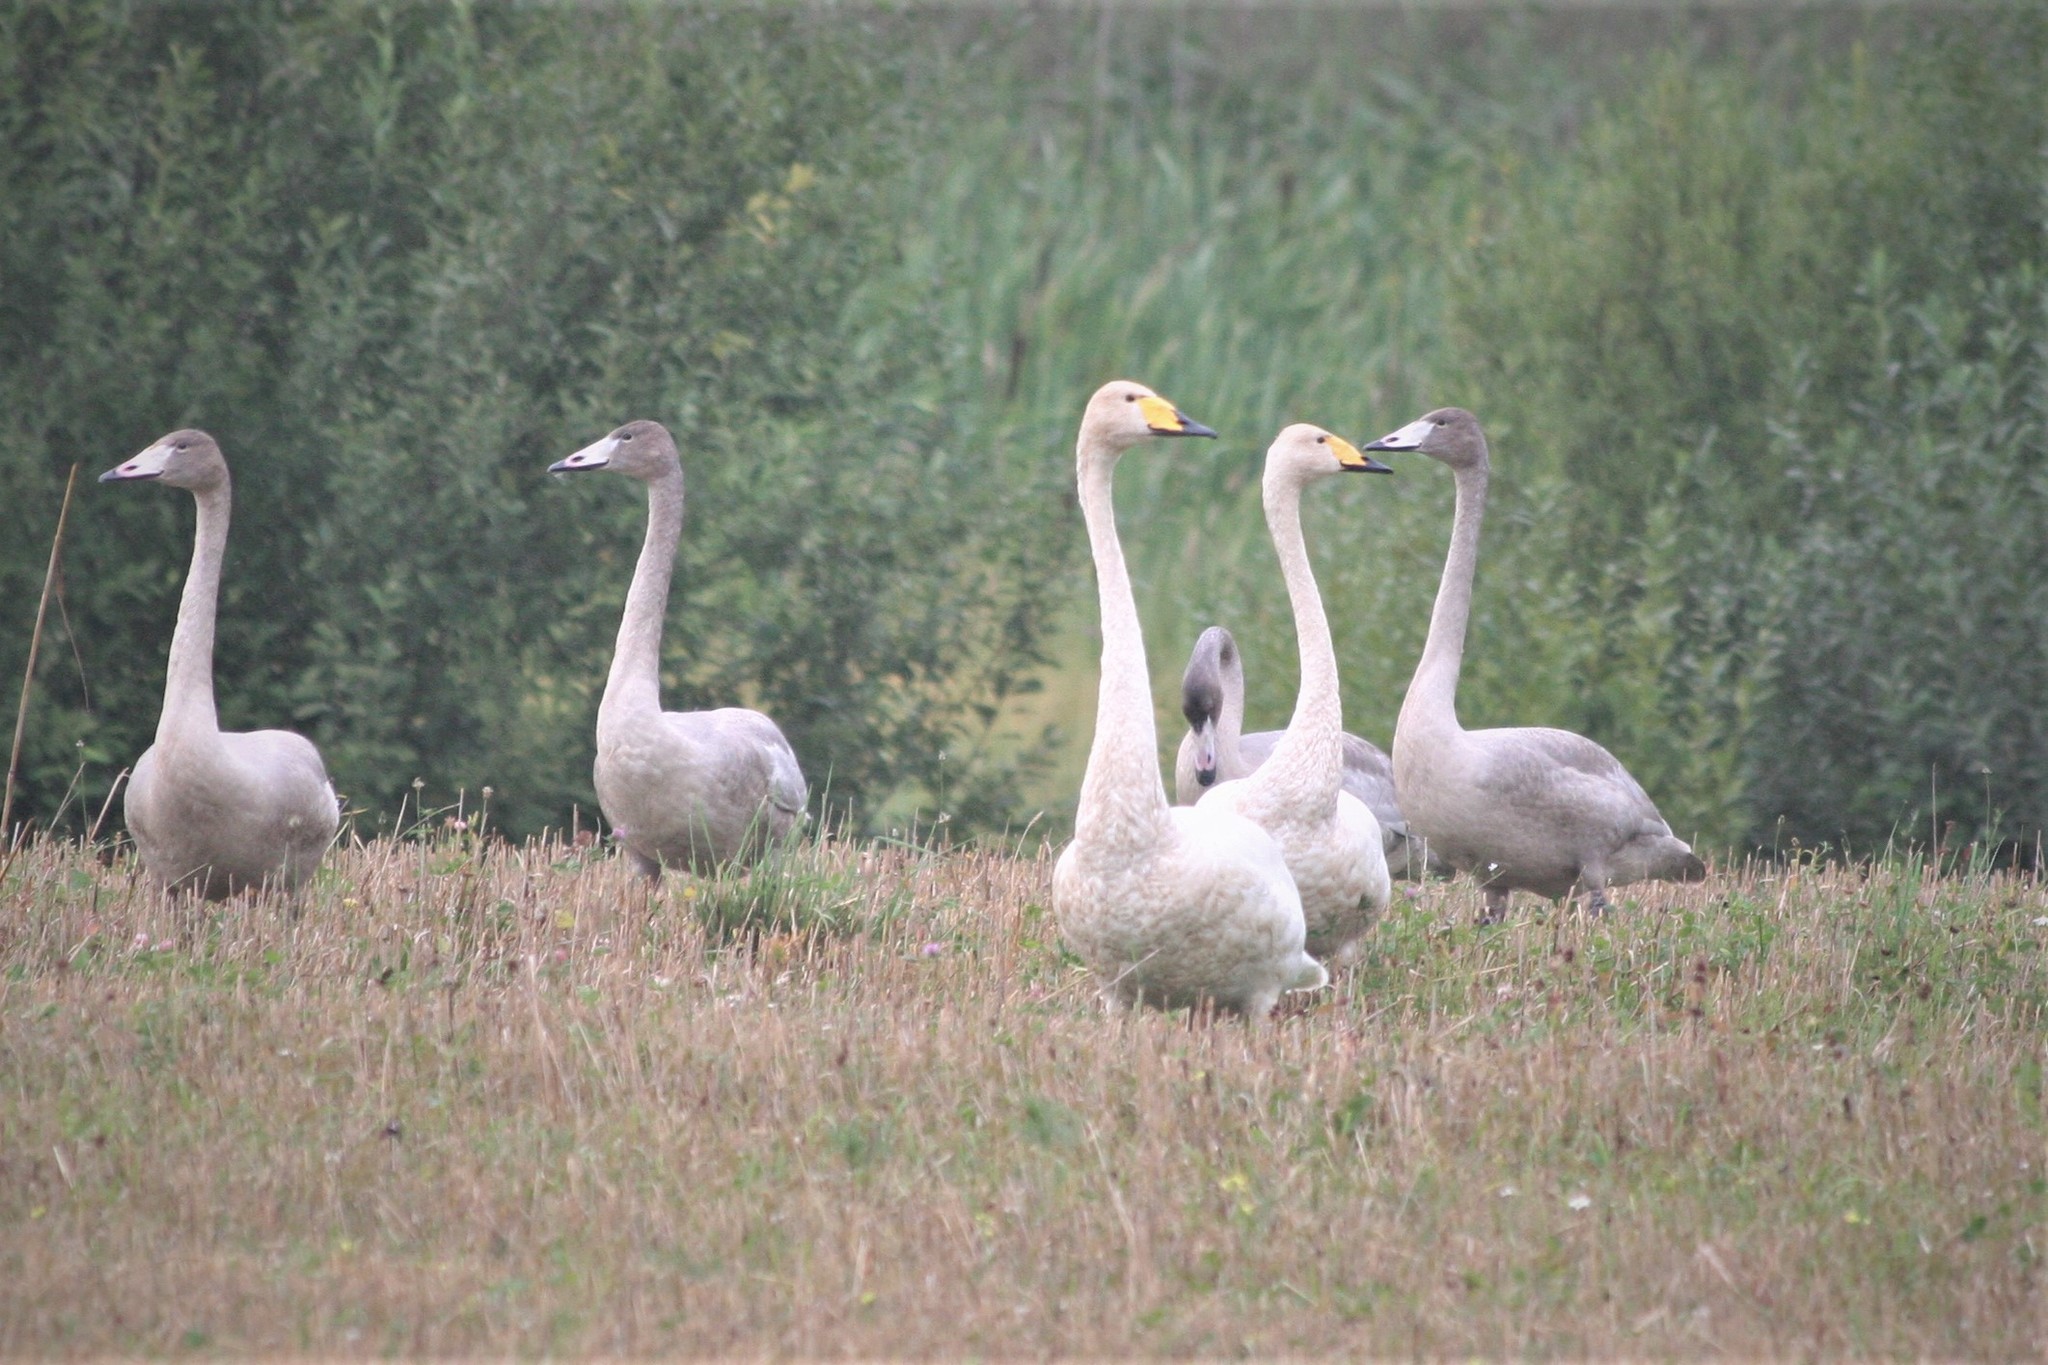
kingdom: Animalia
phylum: Chordata
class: Aves
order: Anseriformes
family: Anatidae
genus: Cygnus
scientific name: Cygnus cygnus
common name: Whooper swan
